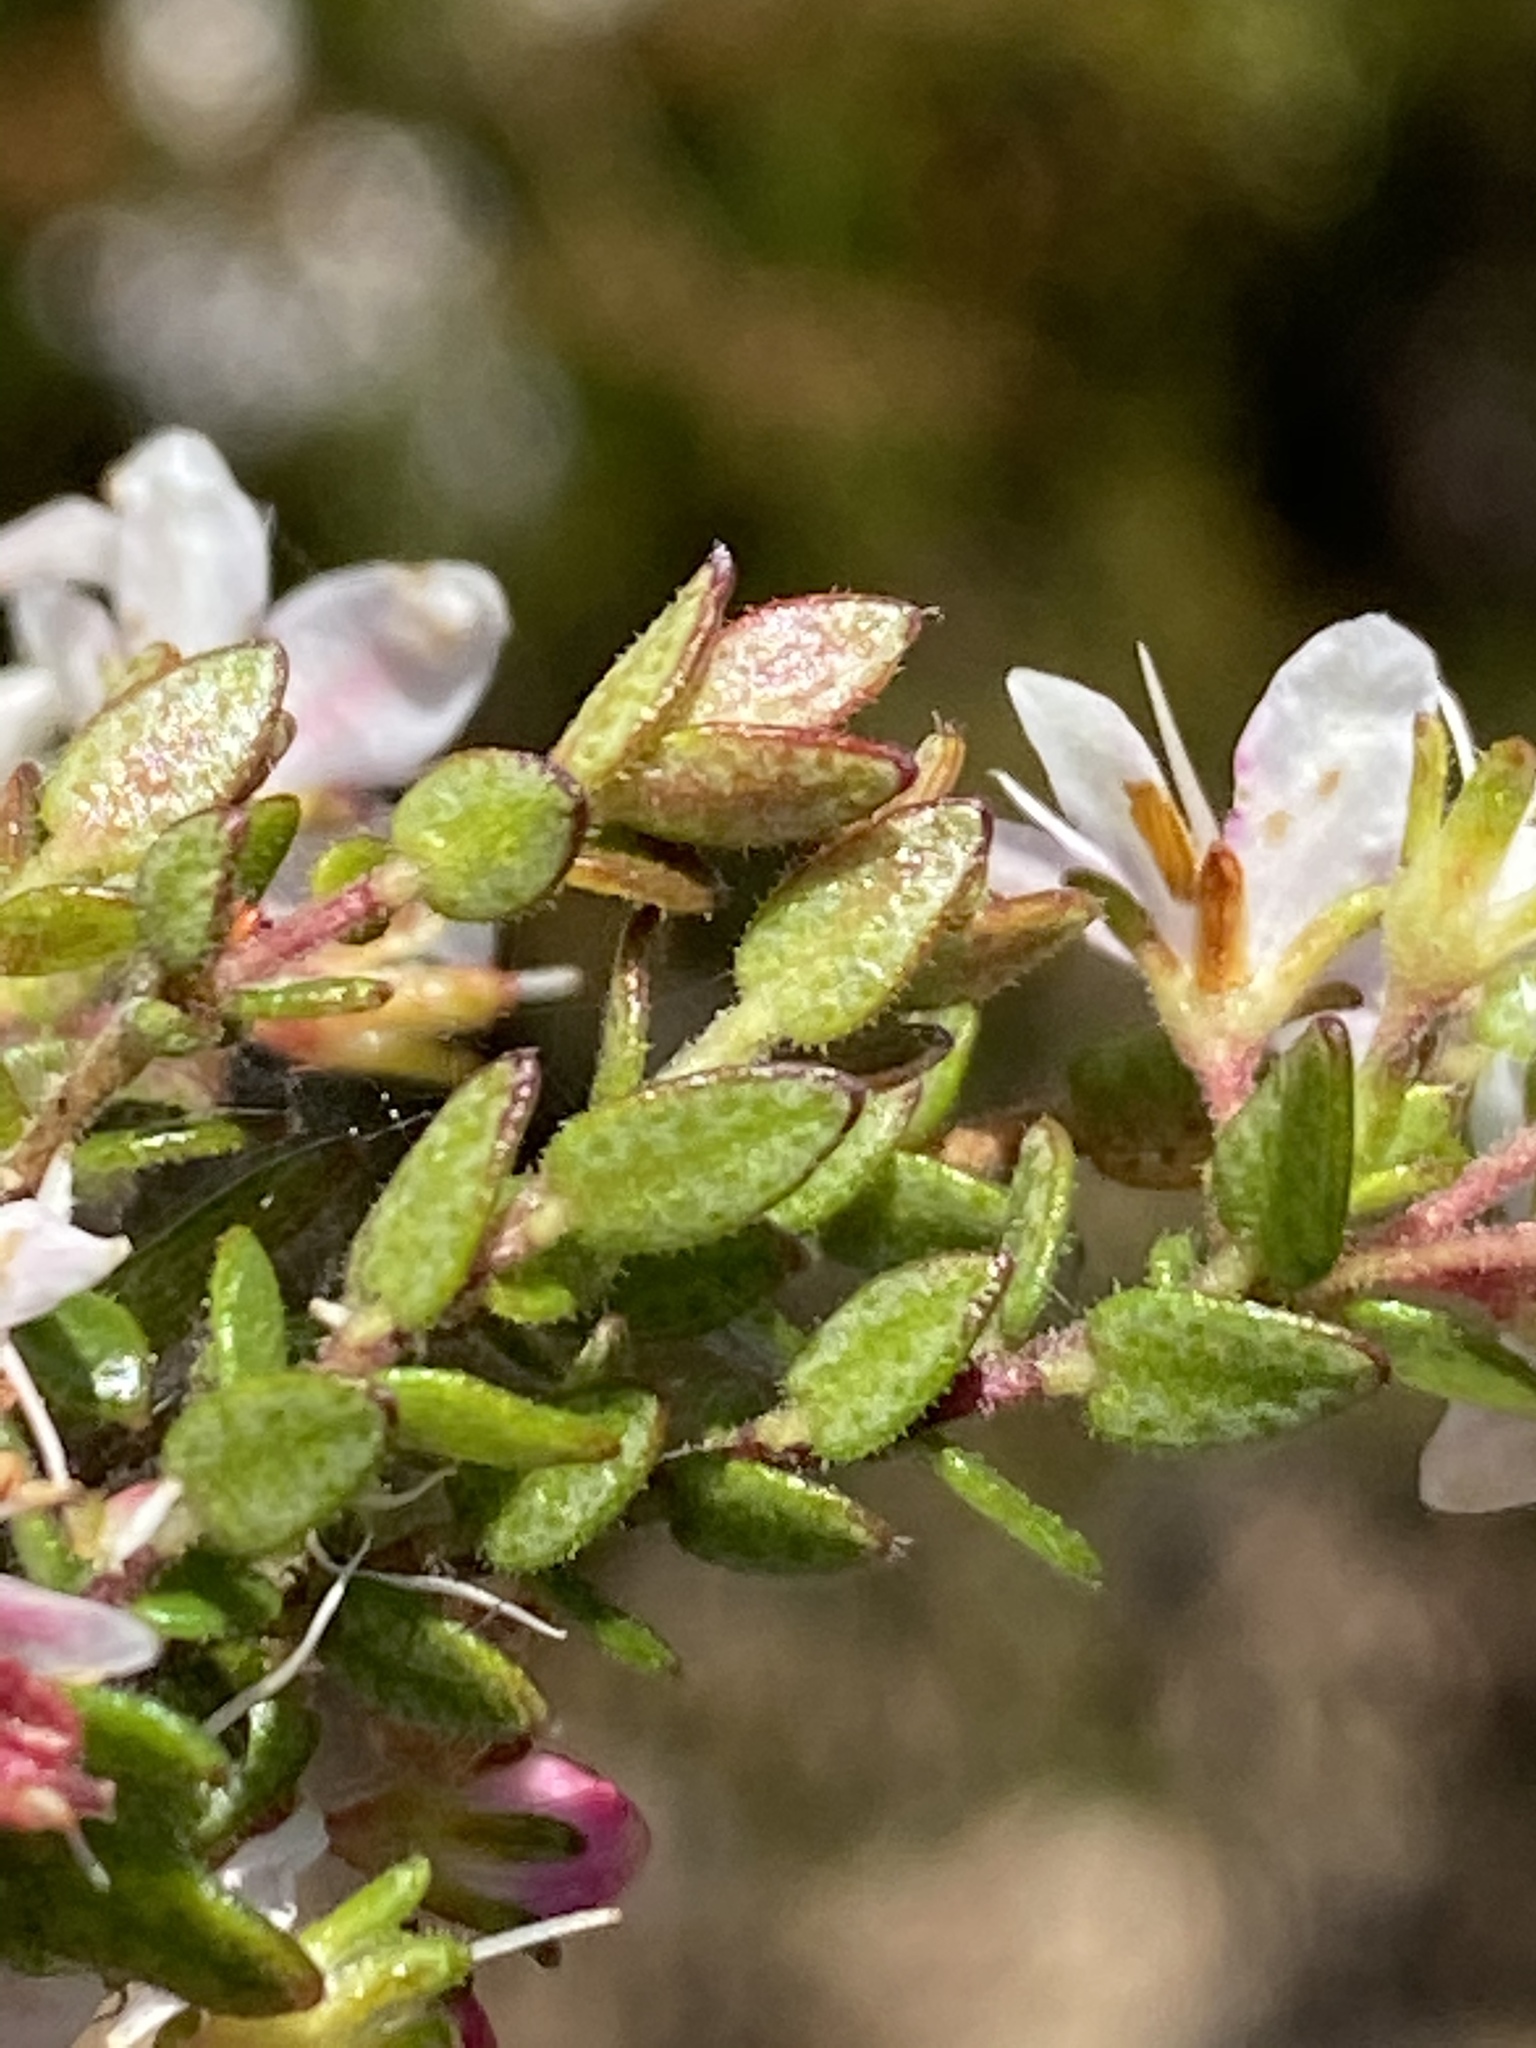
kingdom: Plantae
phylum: Tracheophyta
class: Magnoliopsida
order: Sapindales
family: Rutaceae
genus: Agathosma
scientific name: Agathosma ovata
